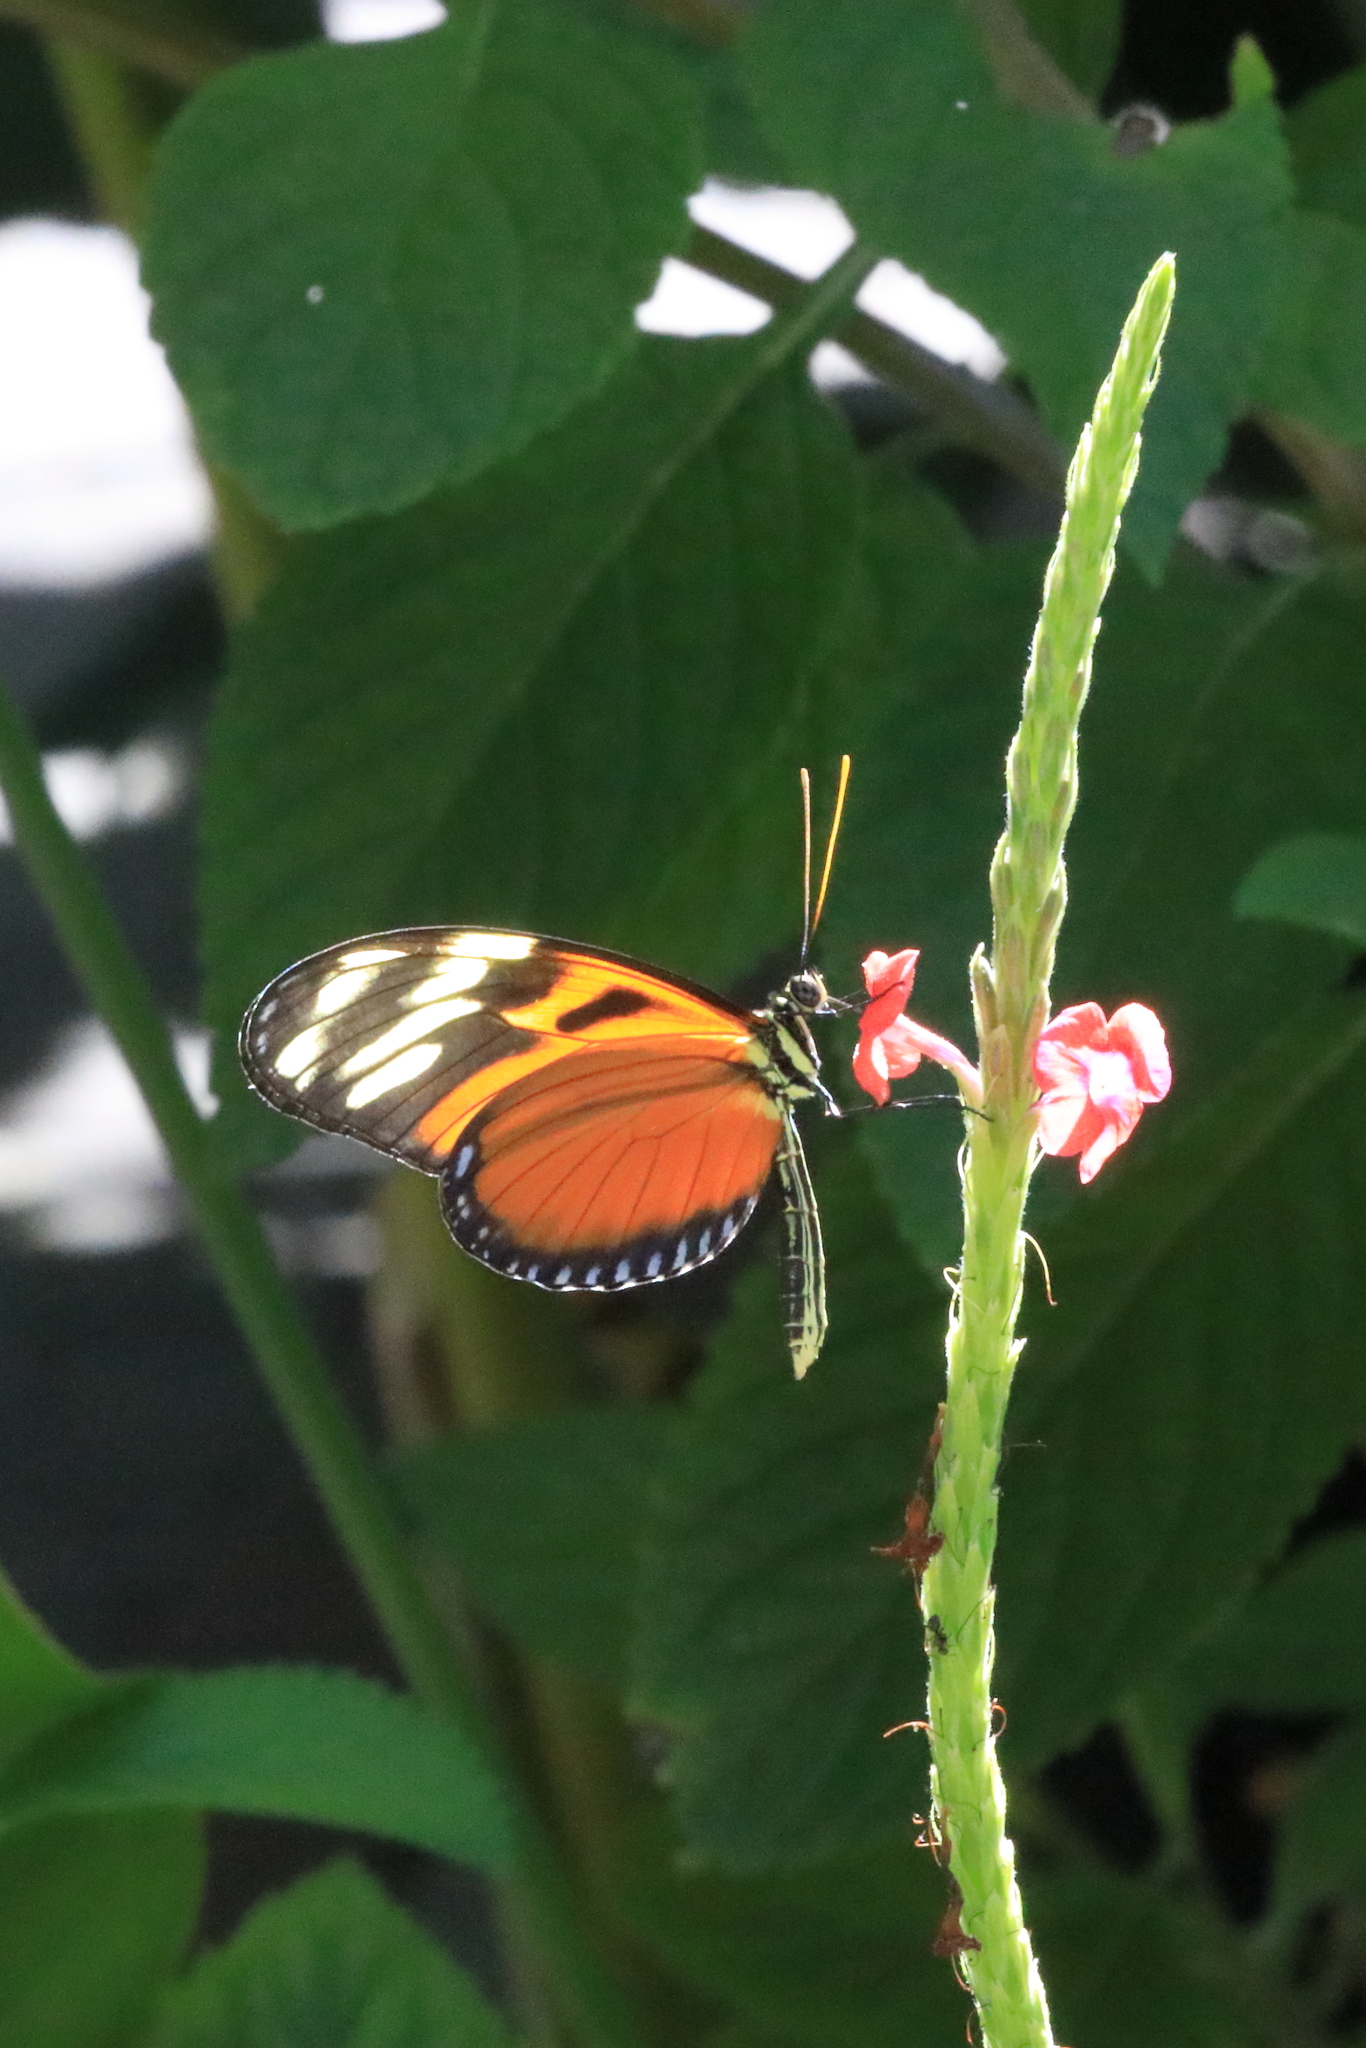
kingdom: Animalia
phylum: Arthropoda
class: Insecta
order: Lepidoptera
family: Nymphalidae
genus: Heliconius
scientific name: Heliconius ismenius
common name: Ismenius tiger
